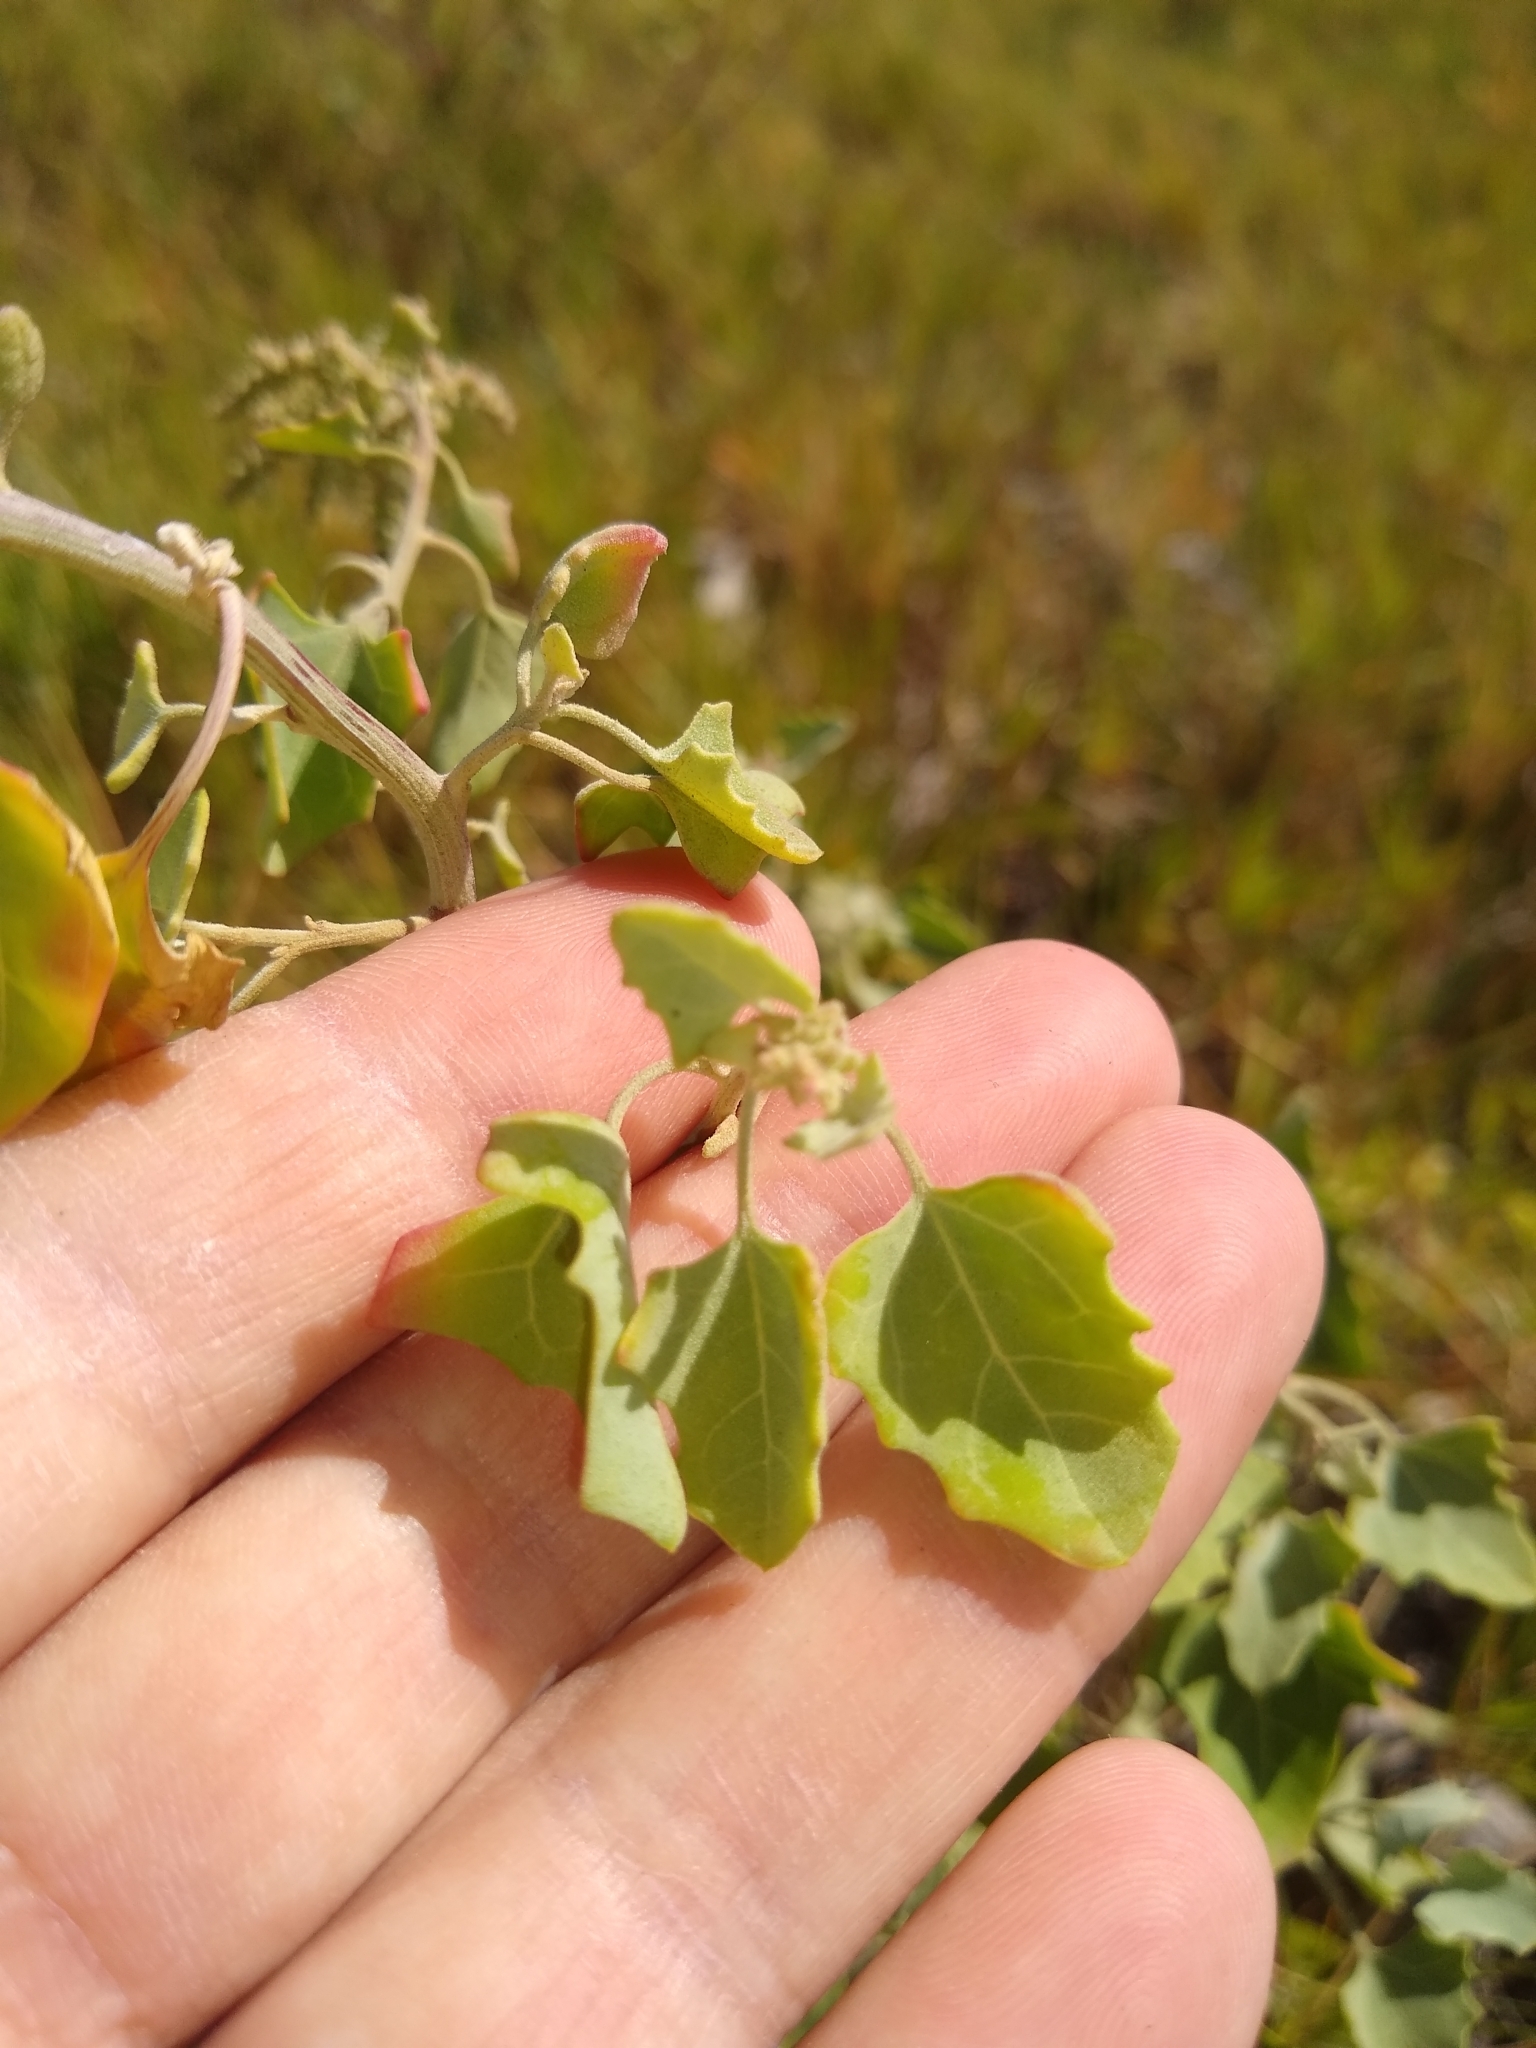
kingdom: Plantae
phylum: Tracheophyta
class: Magnoliopsida
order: Caryophyllales
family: Amaranthaceae
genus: Chenopodium
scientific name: Chenopodium oahuense
